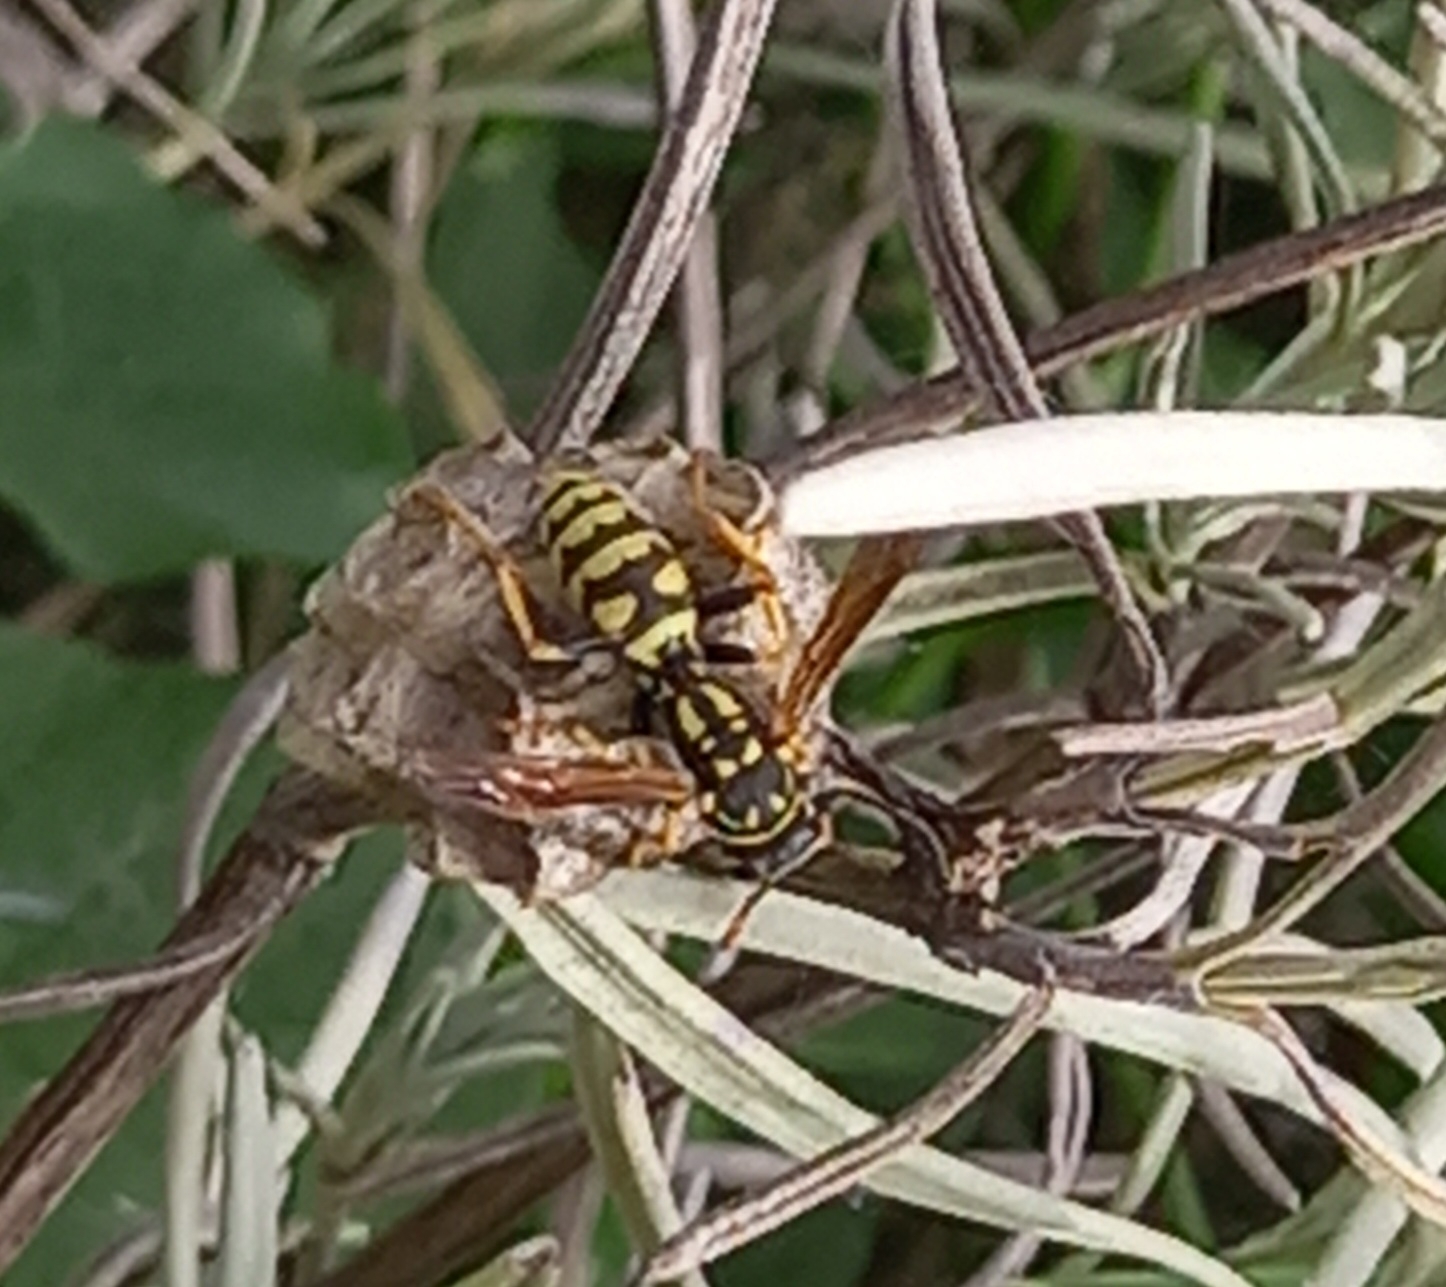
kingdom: Animalia
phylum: Arthropoda
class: Insecta
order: Hymenoptera
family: Eumenidae
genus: Polistes
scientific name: Polistes dominula
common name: Paper wasp
